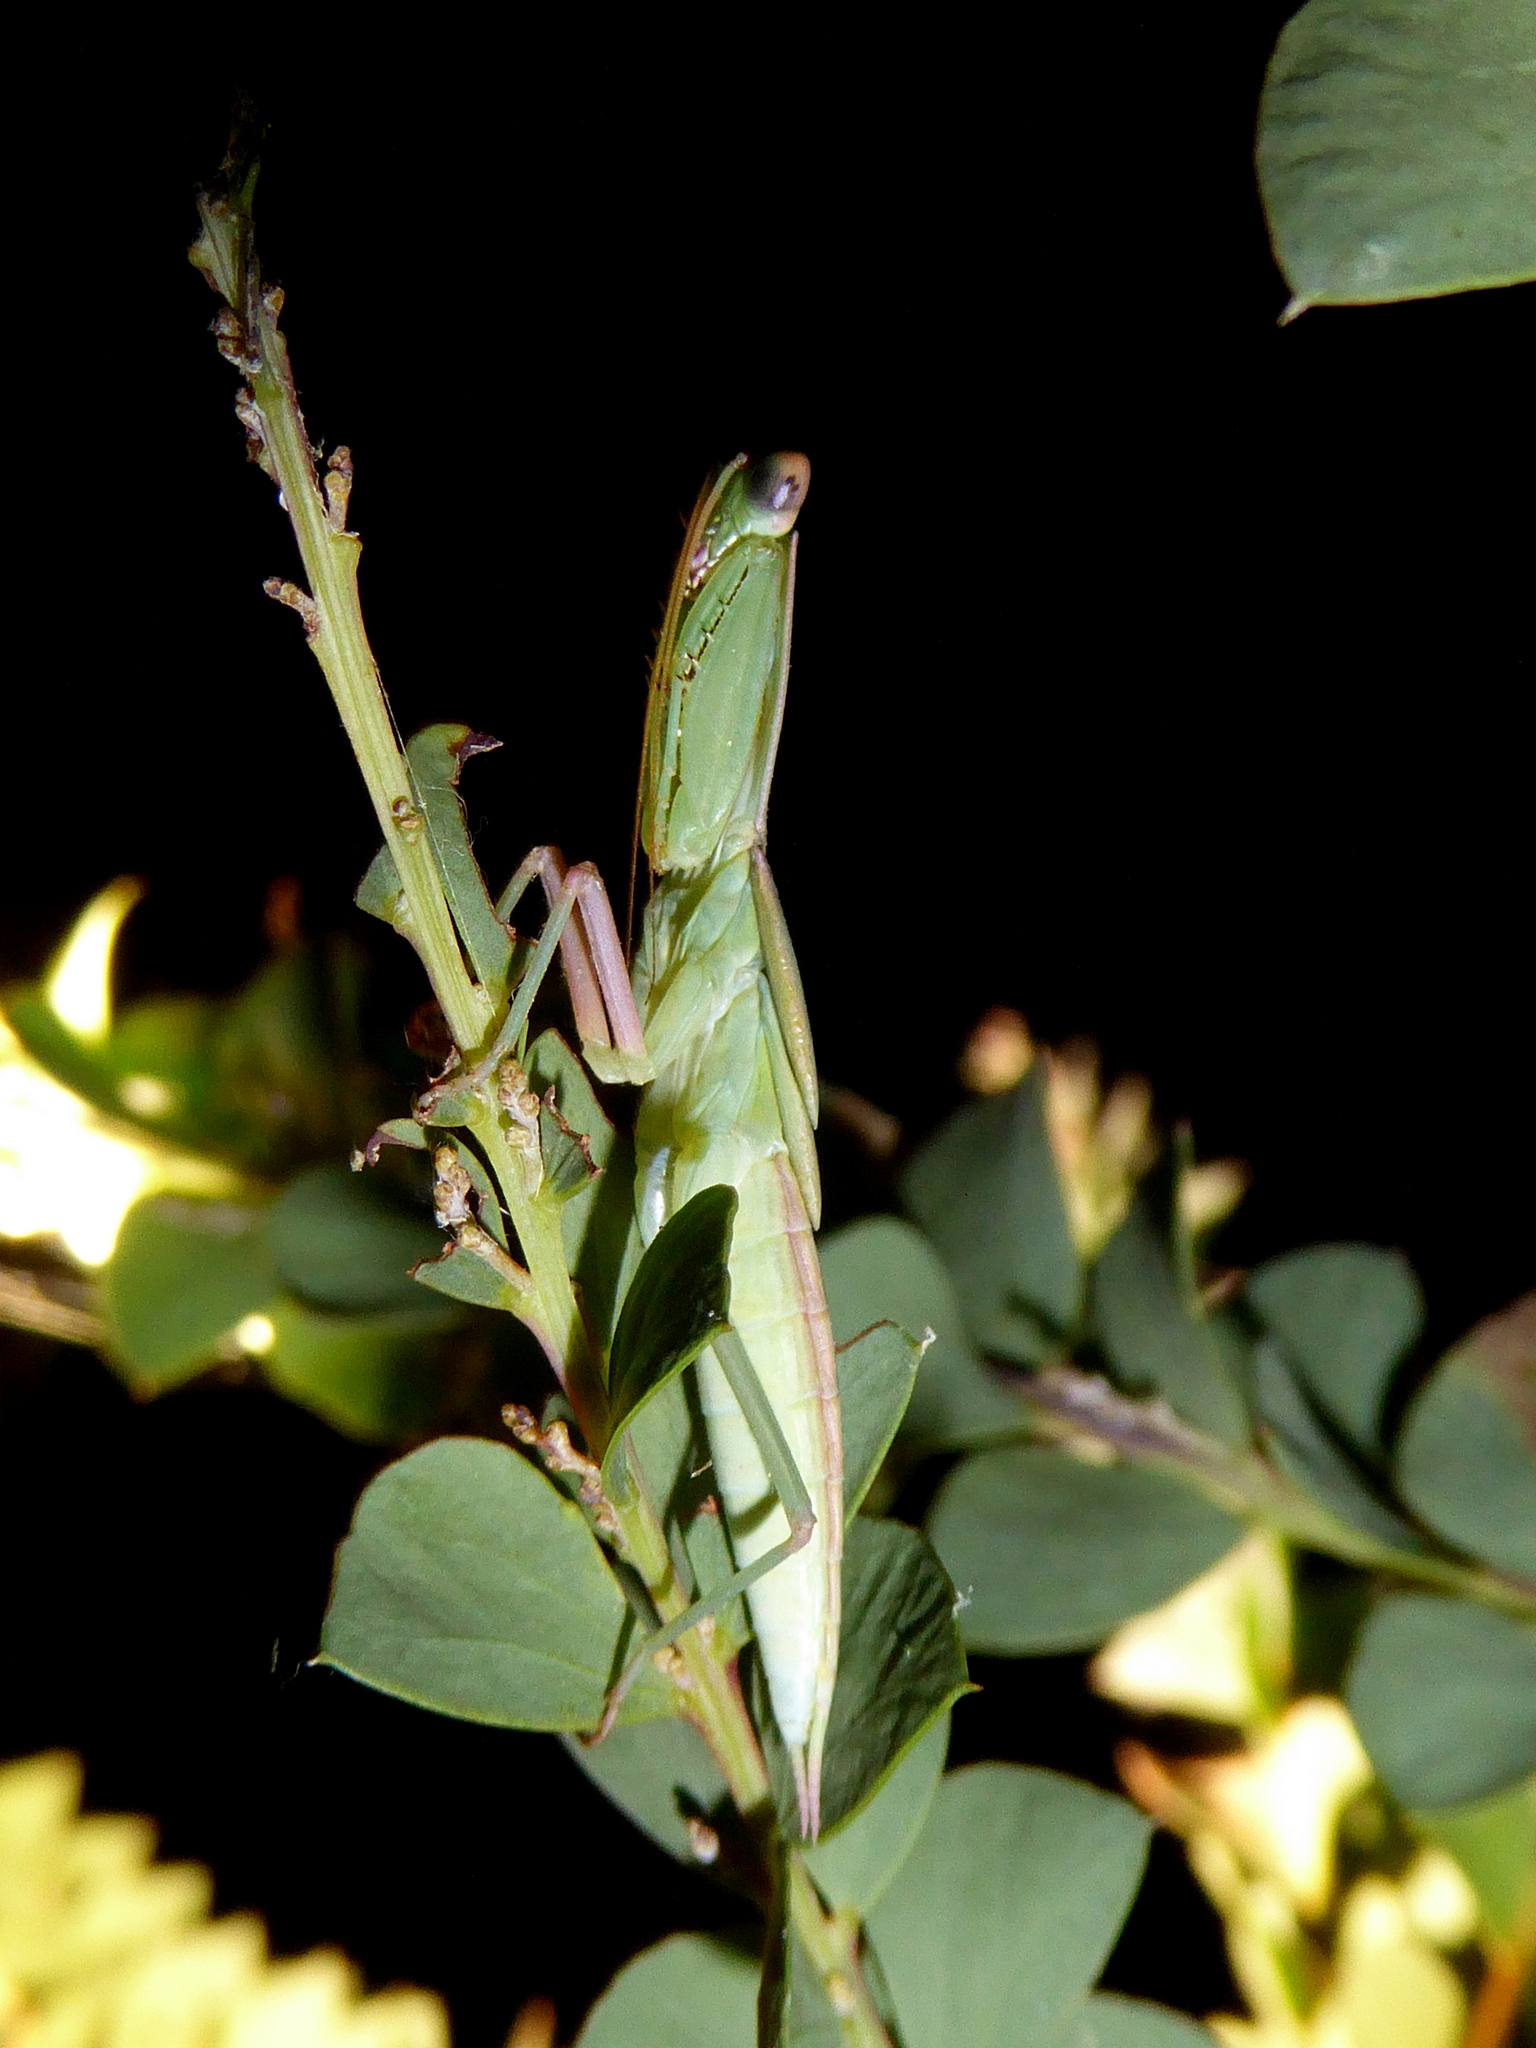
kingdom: Animalia
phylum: Arthropoda
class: Insecta
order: Mantodea
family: Mantidae
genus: Orthodera
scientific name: Orthodera ministralis
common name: Mantis
